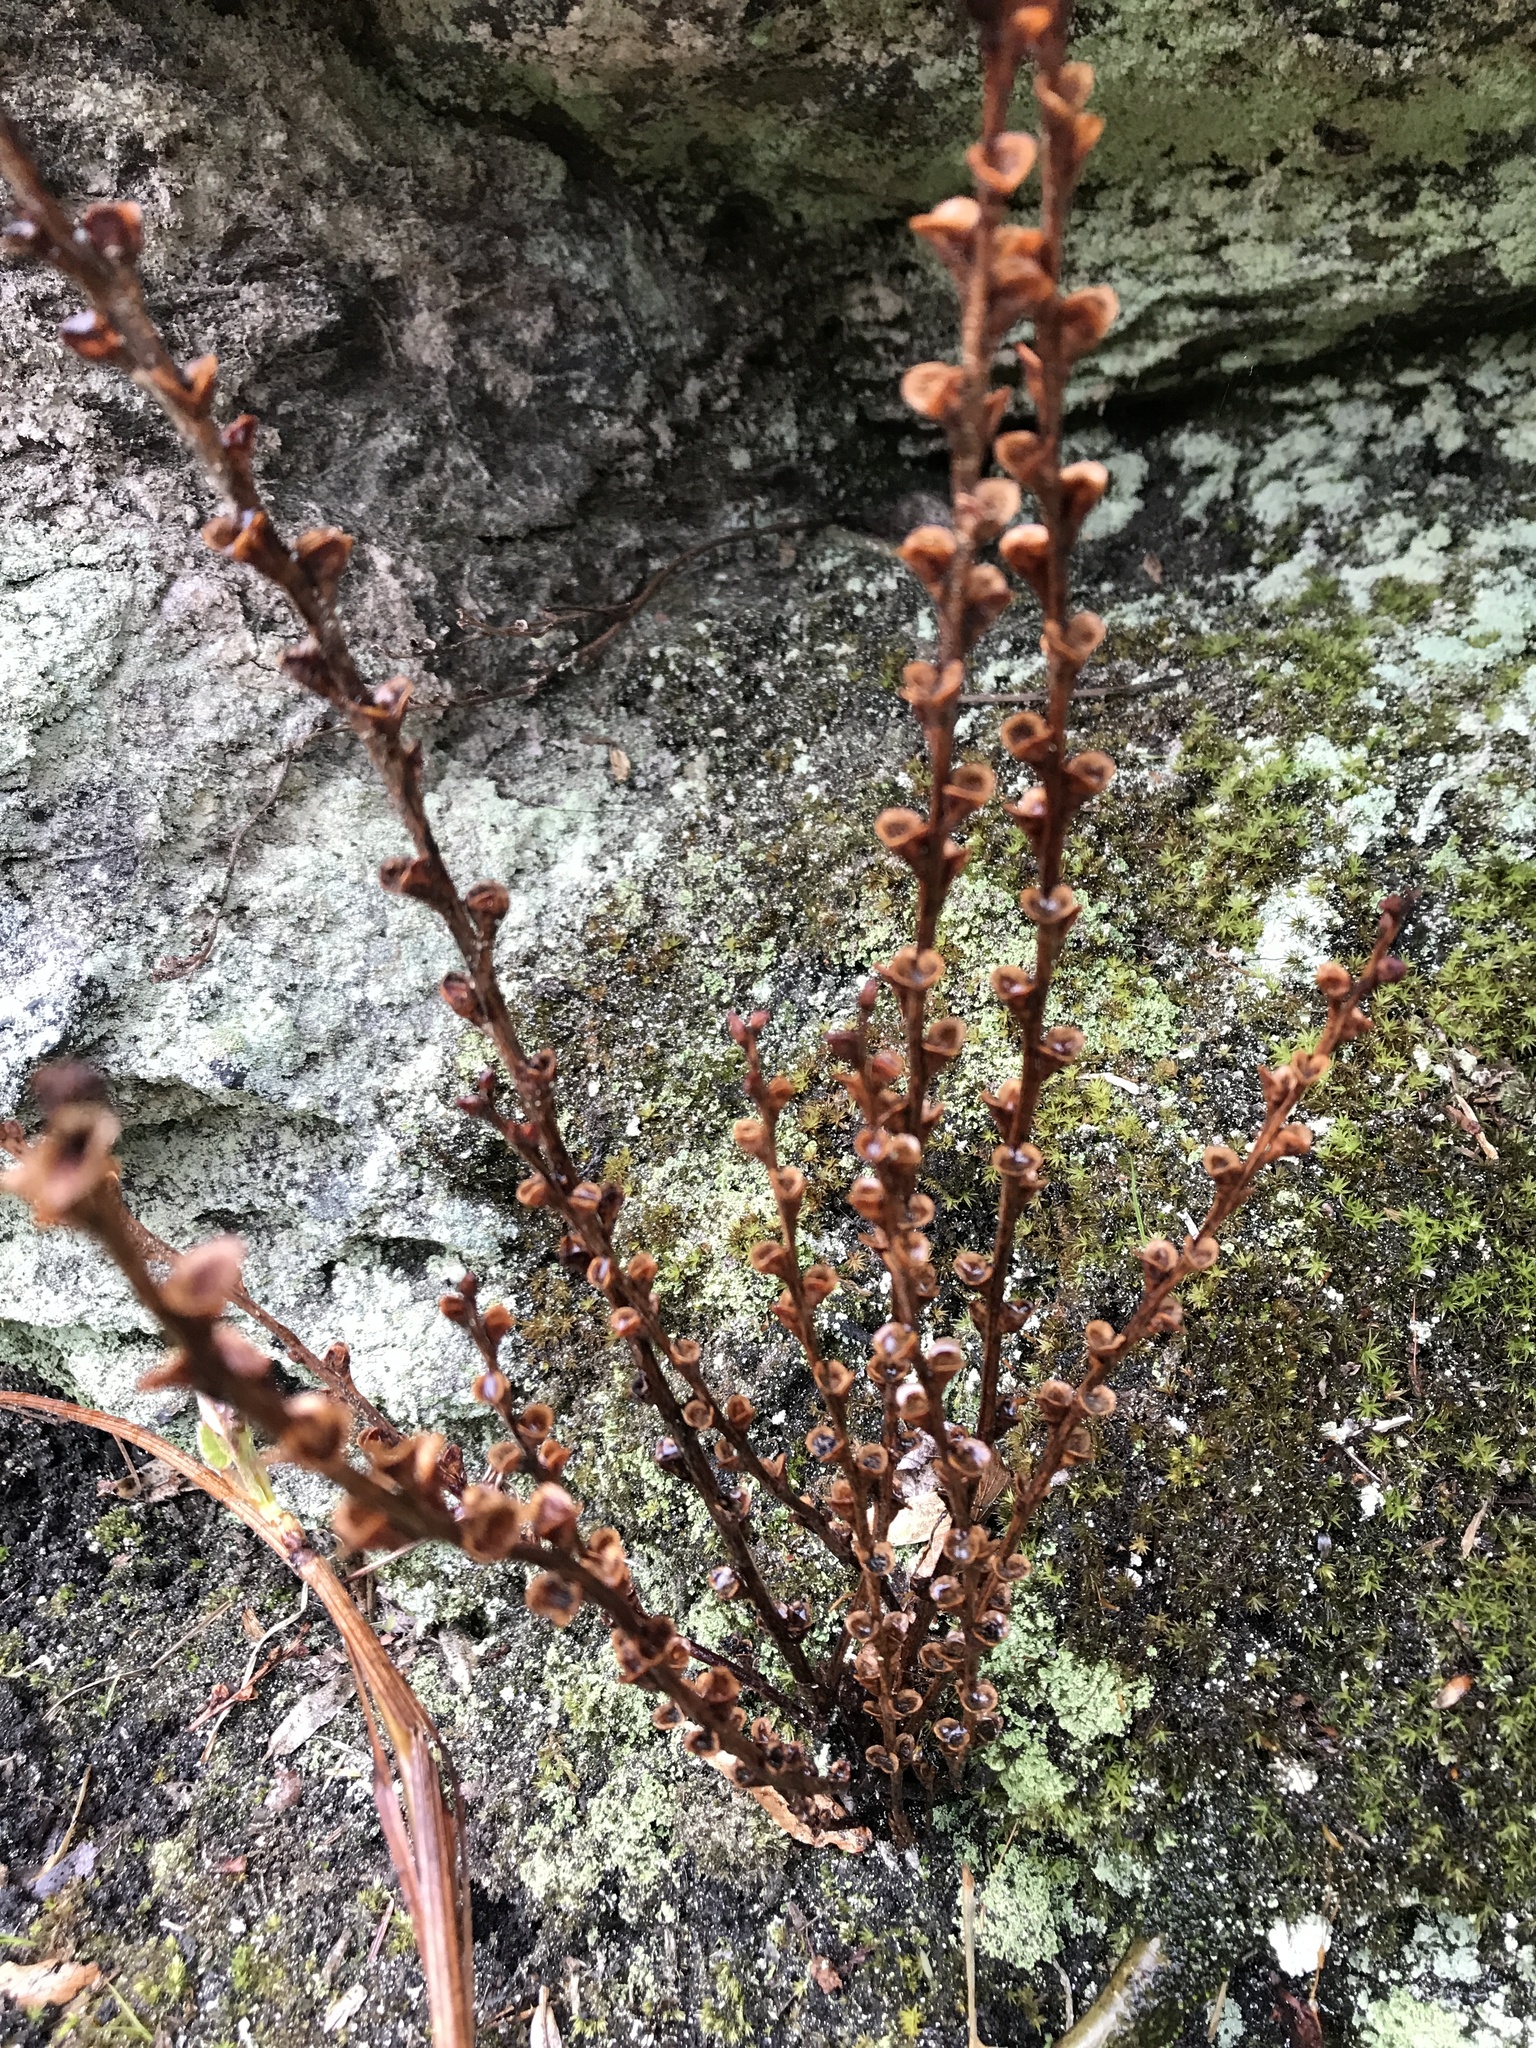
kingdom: Plantae
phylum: Tracheophyta
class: Magnoliopsida
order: Lamiales
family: Orobanchaceae
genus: Epifagus
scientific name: Epifagus virginiana
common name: Beechdrops
